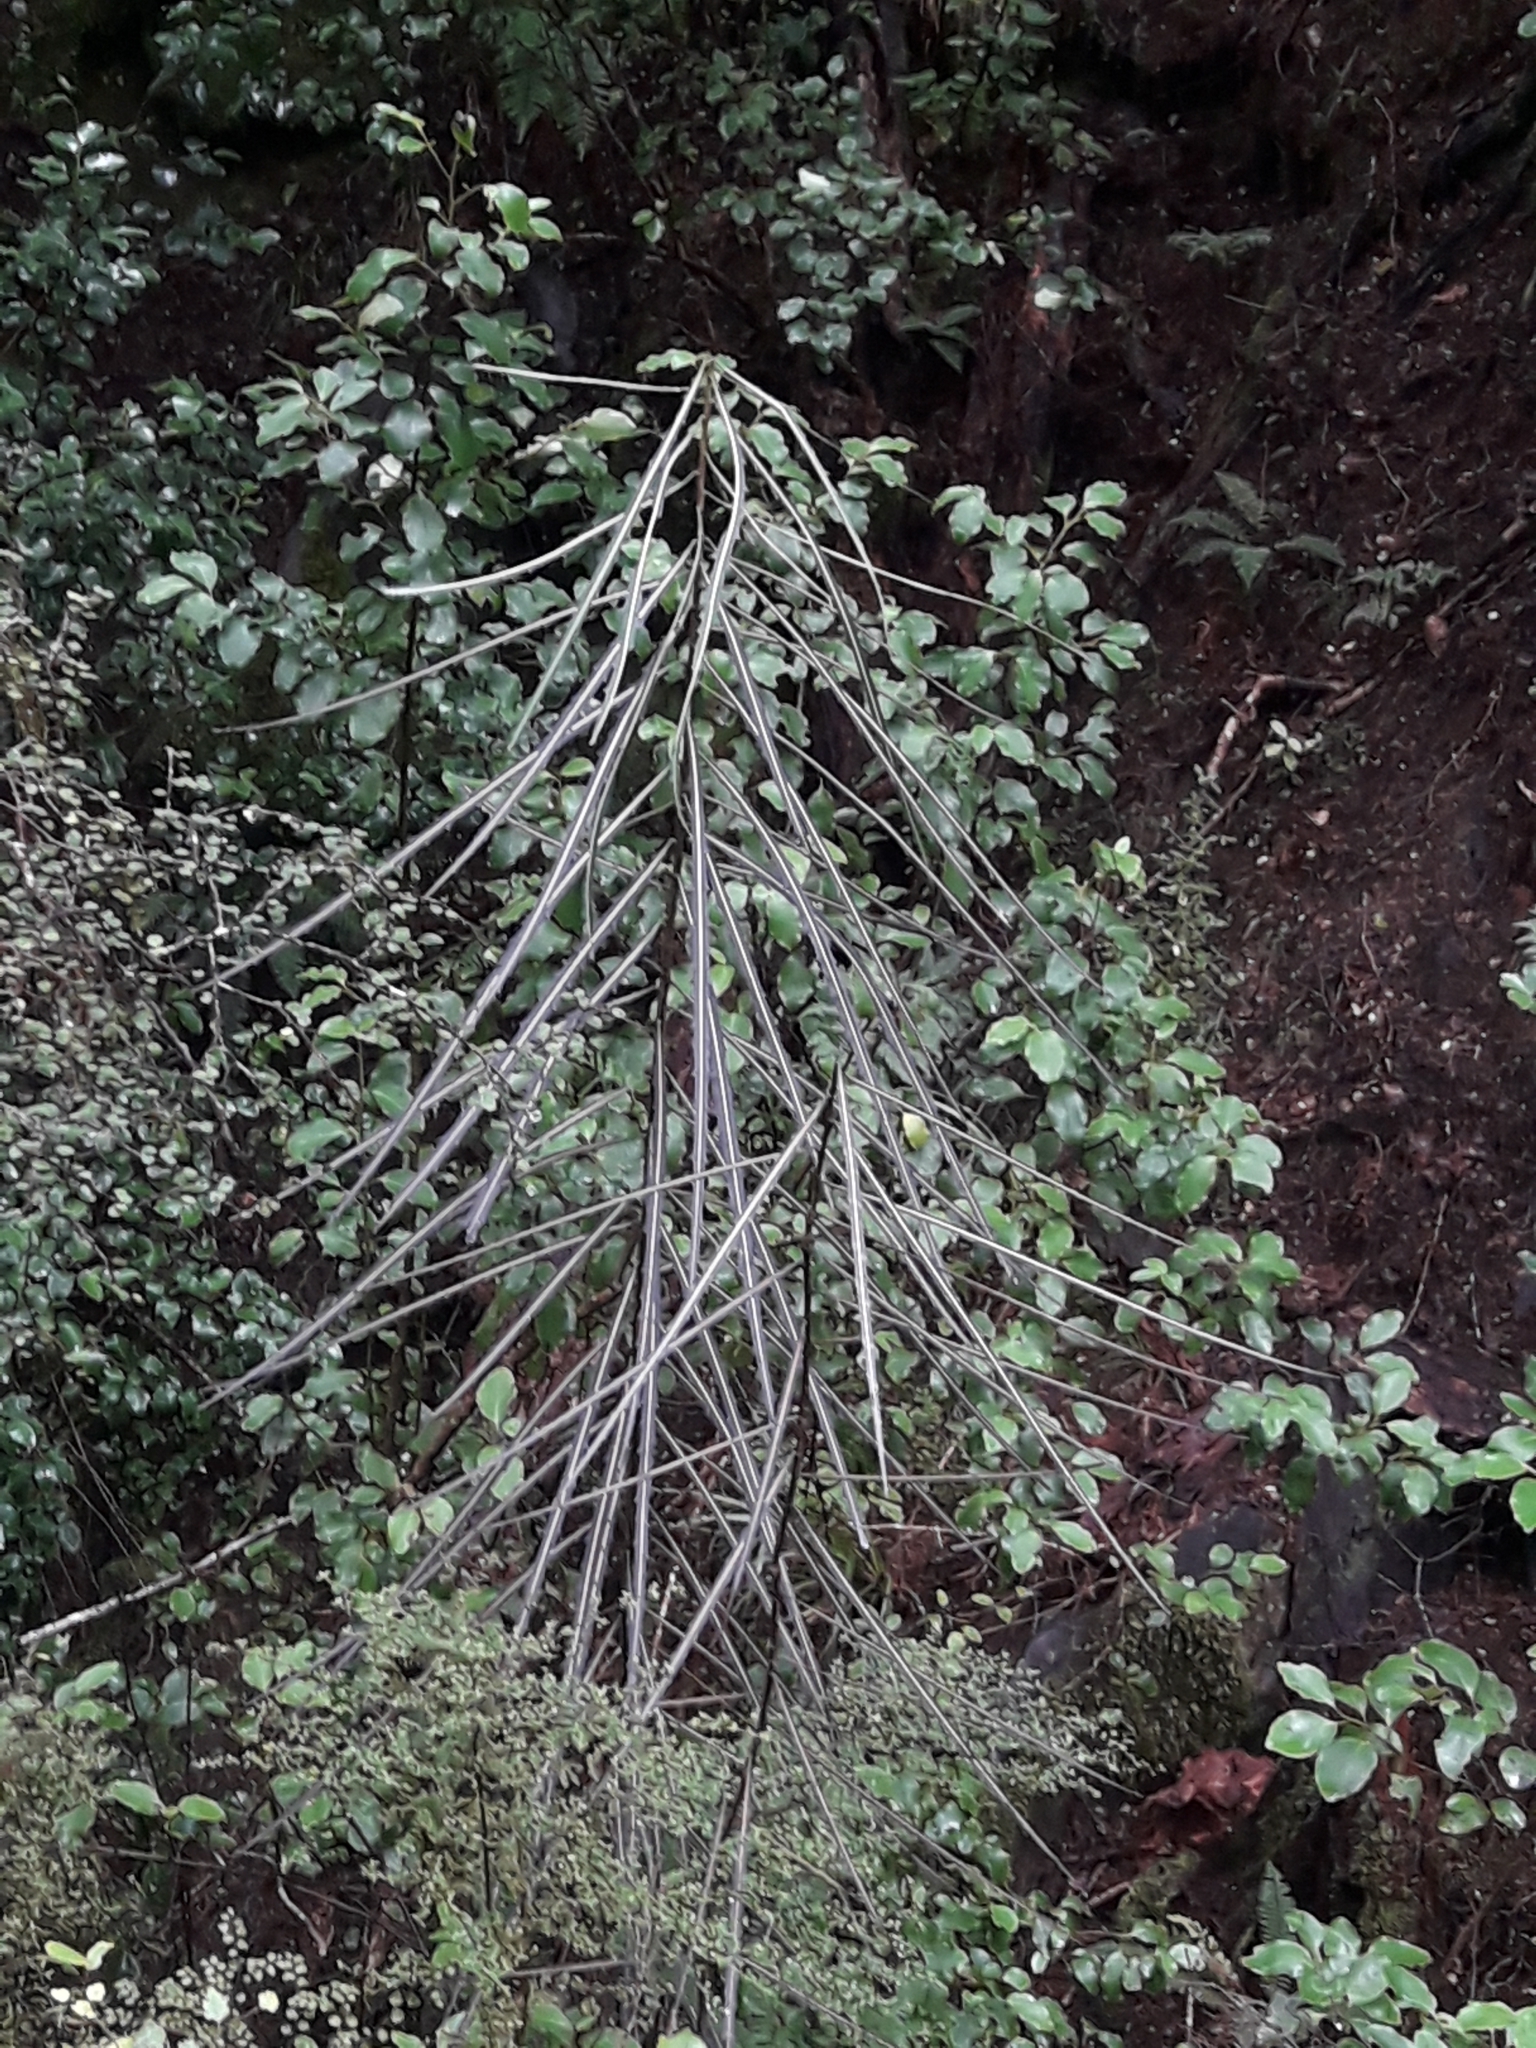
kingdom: Plantae
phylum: Tracheophyta
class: Magnoliopsida
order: Apiales
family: Araliaceae
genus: Pseudopanax
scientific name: Pseudopanax crassifolius
